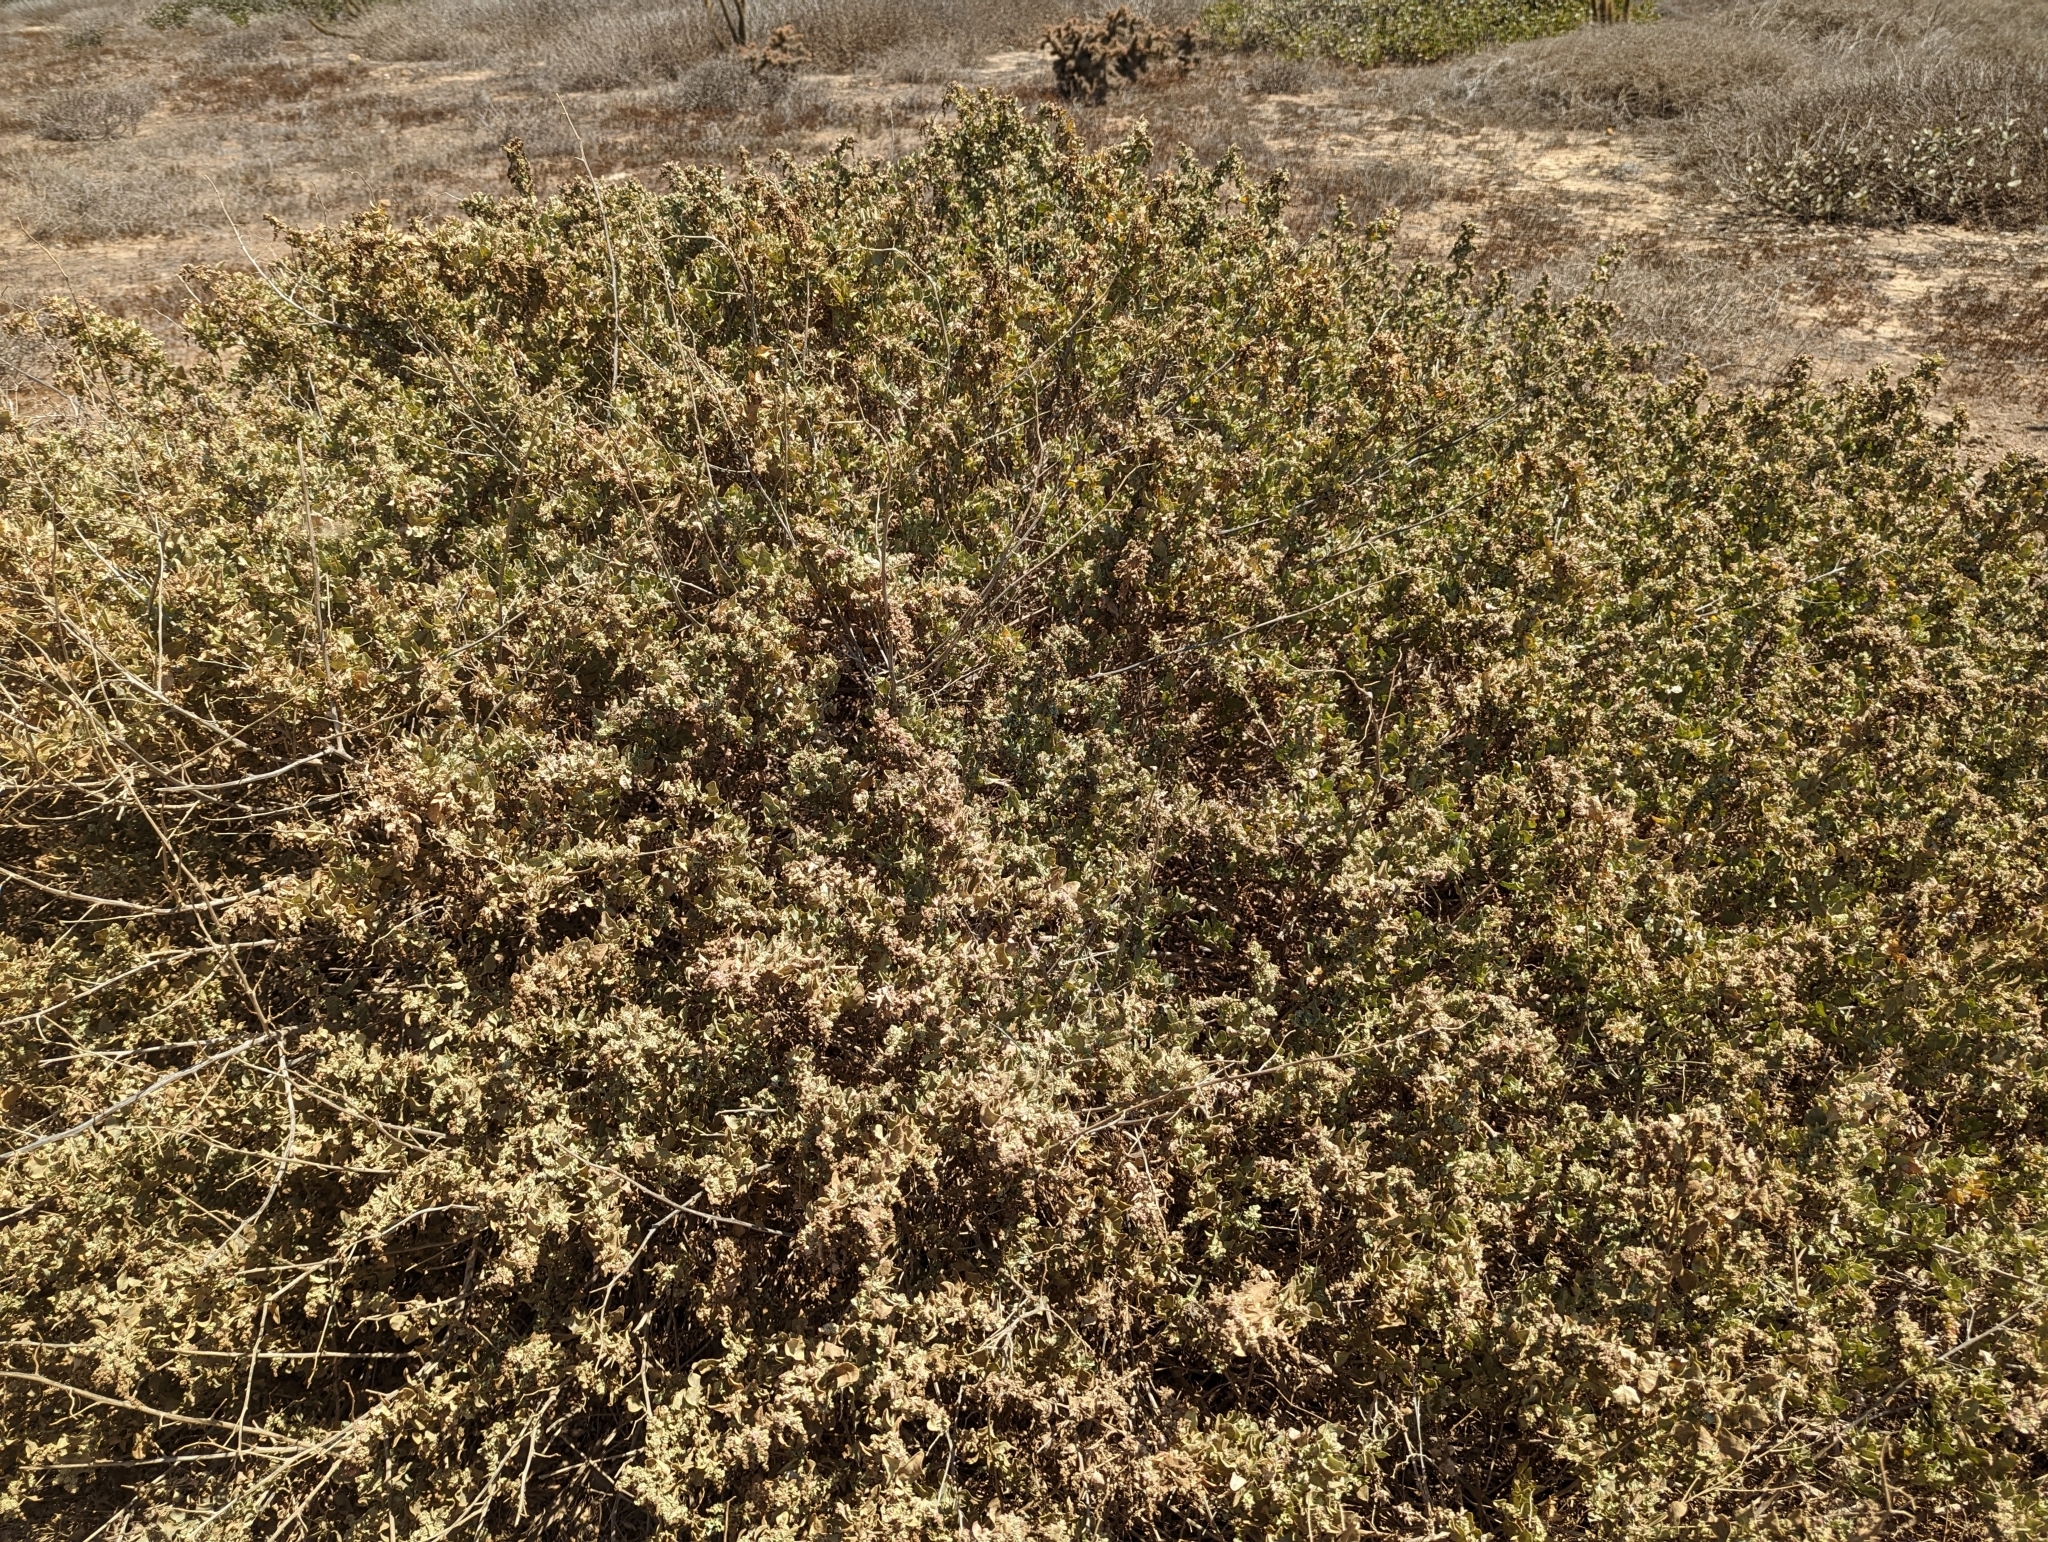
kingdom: Plantae
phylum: Tracheophyta
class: Magnoliopsida
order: Caryophyllales
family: Amaranthaceae
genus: Atriplex
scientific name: Atriplex lentiformis
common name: Big saltbush
